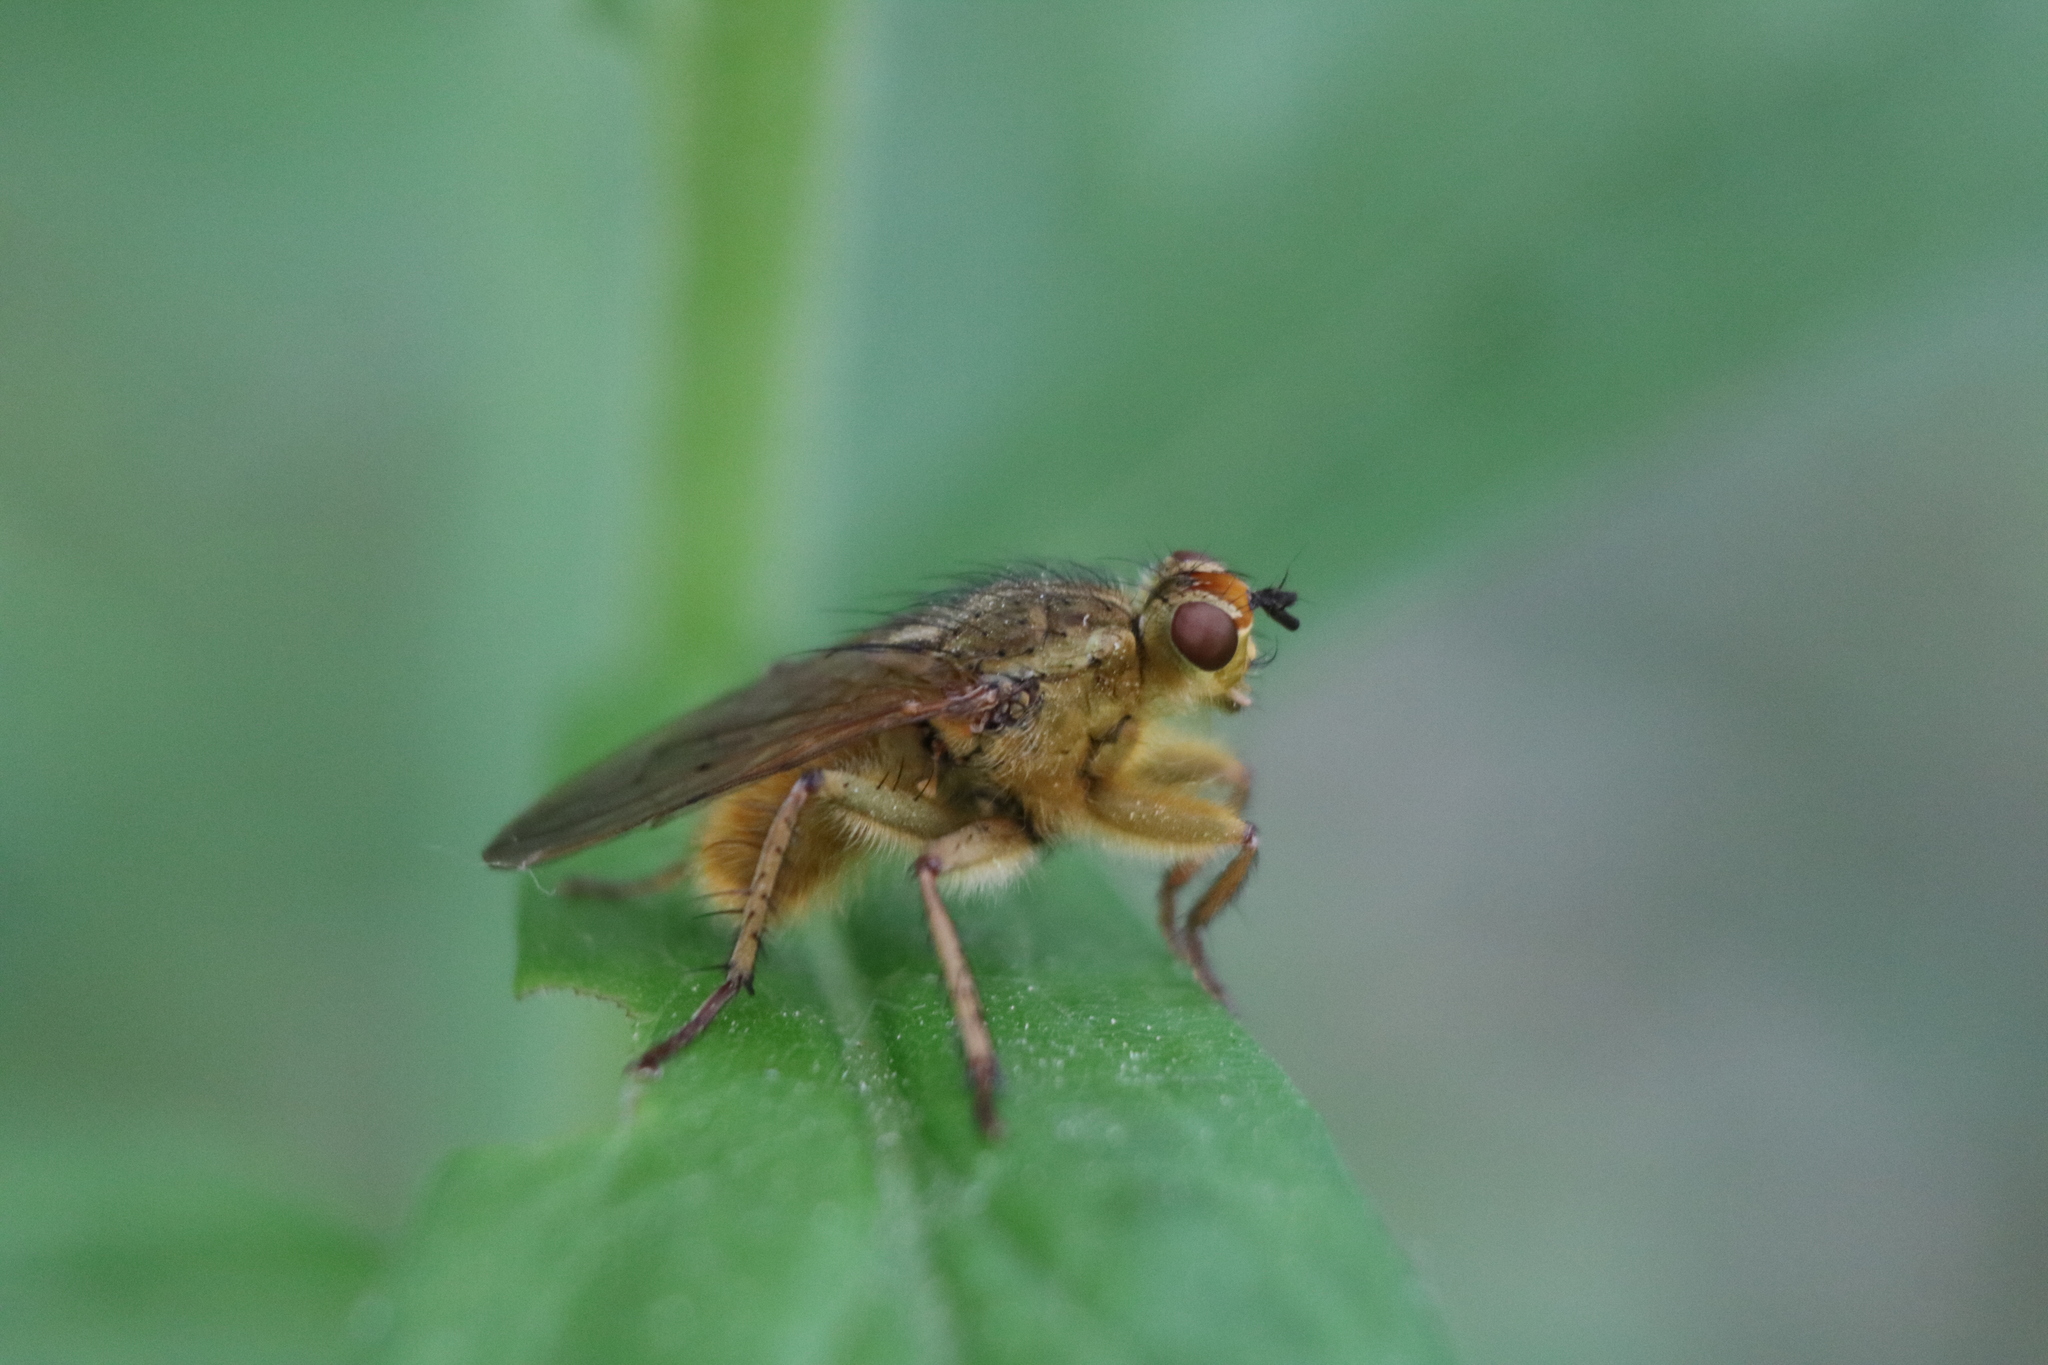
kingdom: Animalia
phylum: Arthropoda
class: Insecta
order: Diptera
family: Scathophagidae
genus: Scathophaga
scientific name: Scathophaga stercoraria
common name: Yellow dung fly
